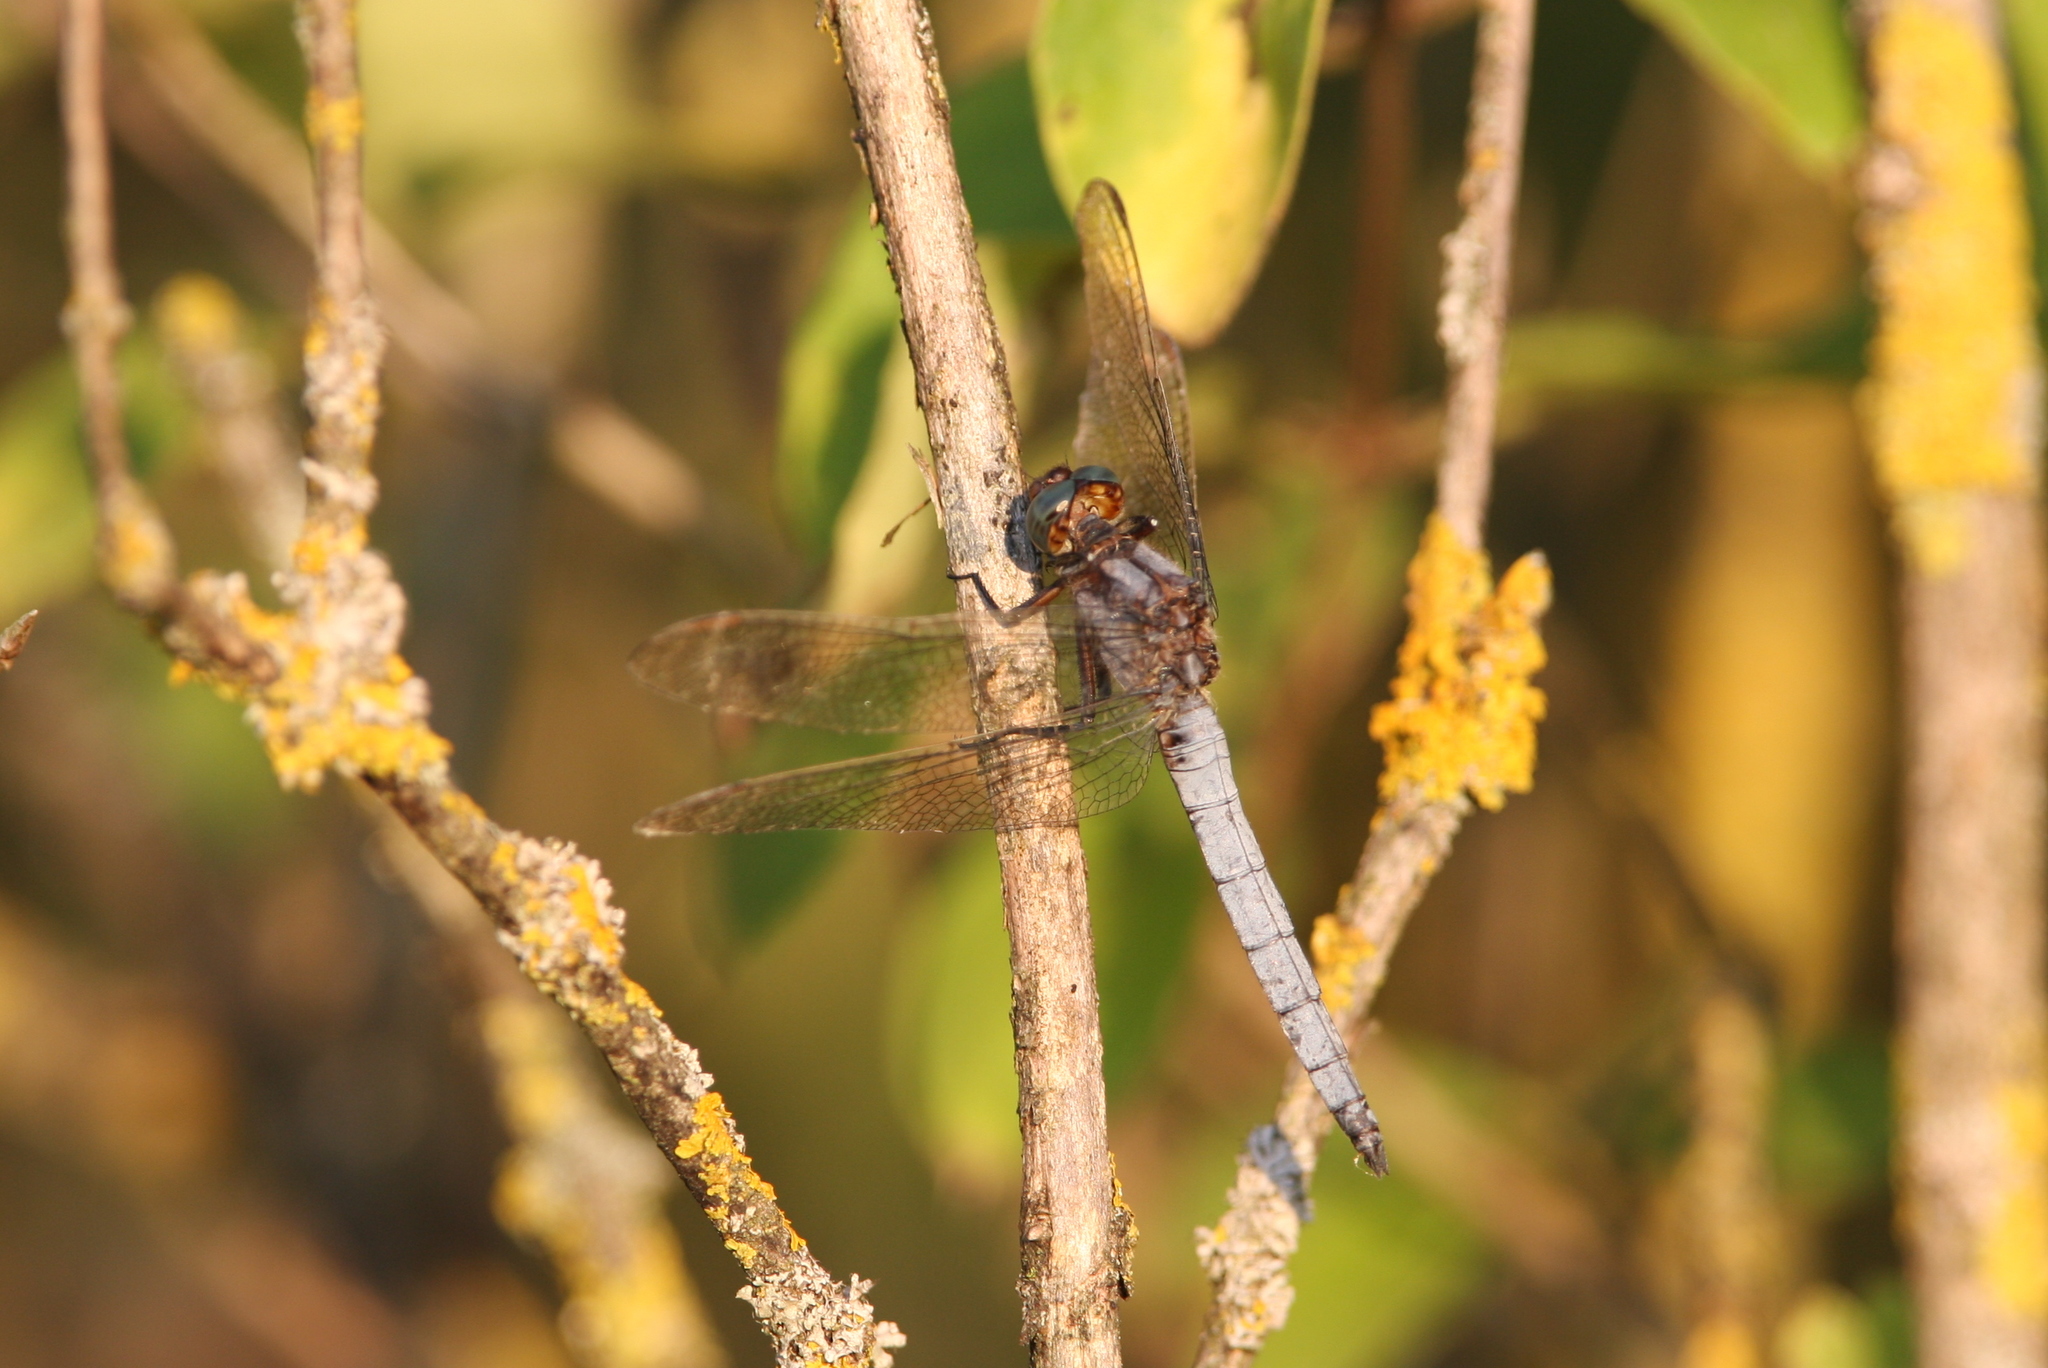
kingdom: Animalia
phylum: Arthropoda
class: Insecta
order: Odonata
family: Libellulidae
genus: Orthetrum
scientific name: Orthetrum coerulescens
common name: Keeled skimmer
